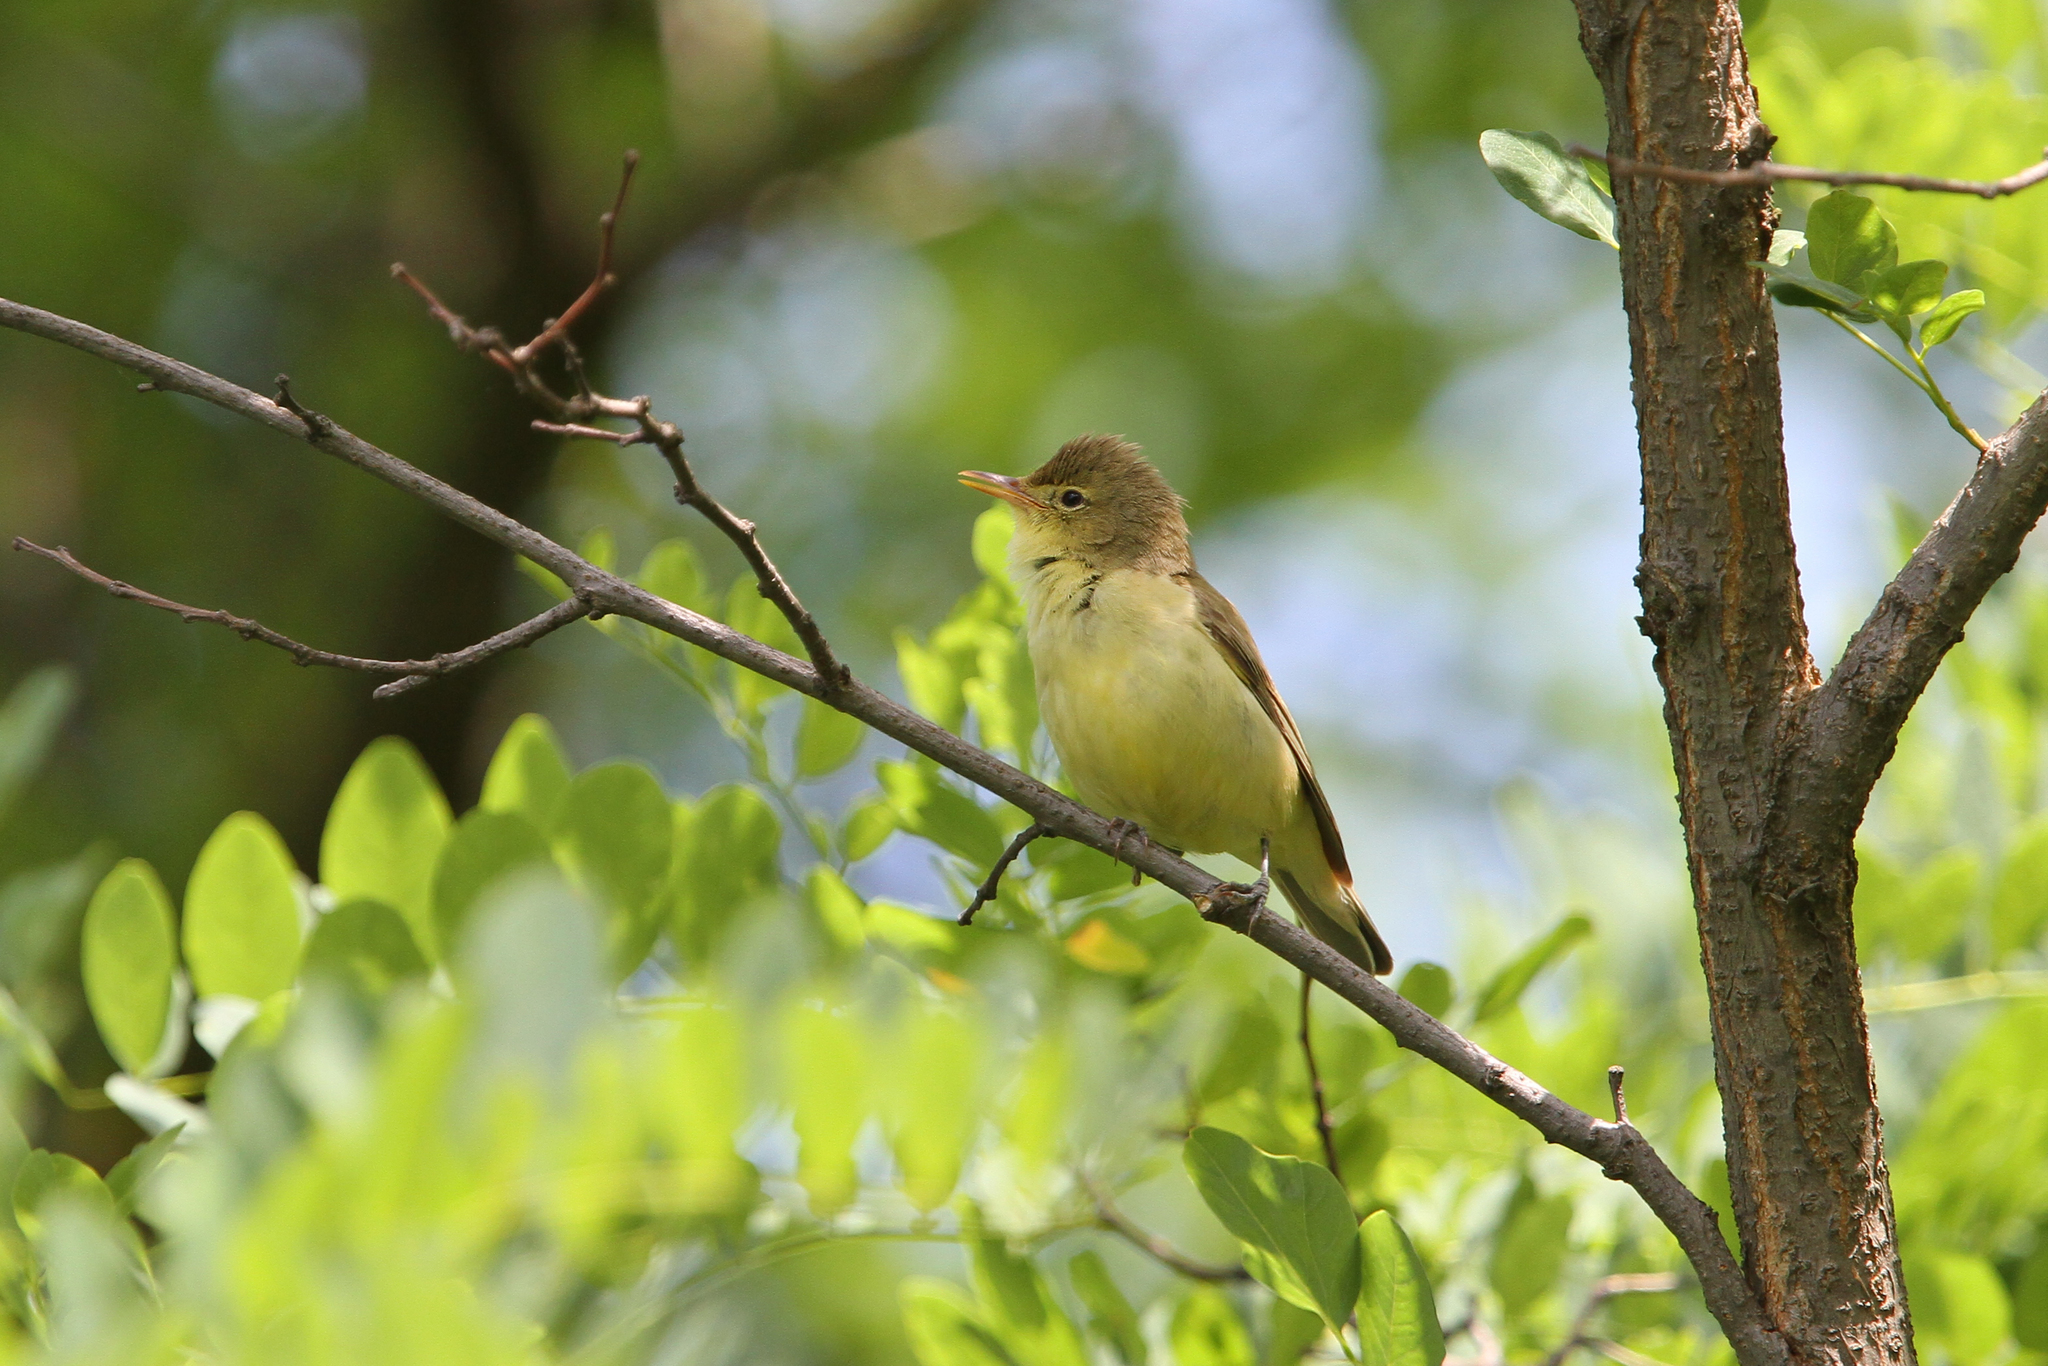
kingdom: Animalia
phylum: Chordata
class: Aves
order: Passeriformes
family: Acrocephalidae
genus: Hippolais
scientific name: Hippolais icterina
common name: Icterine warbler
